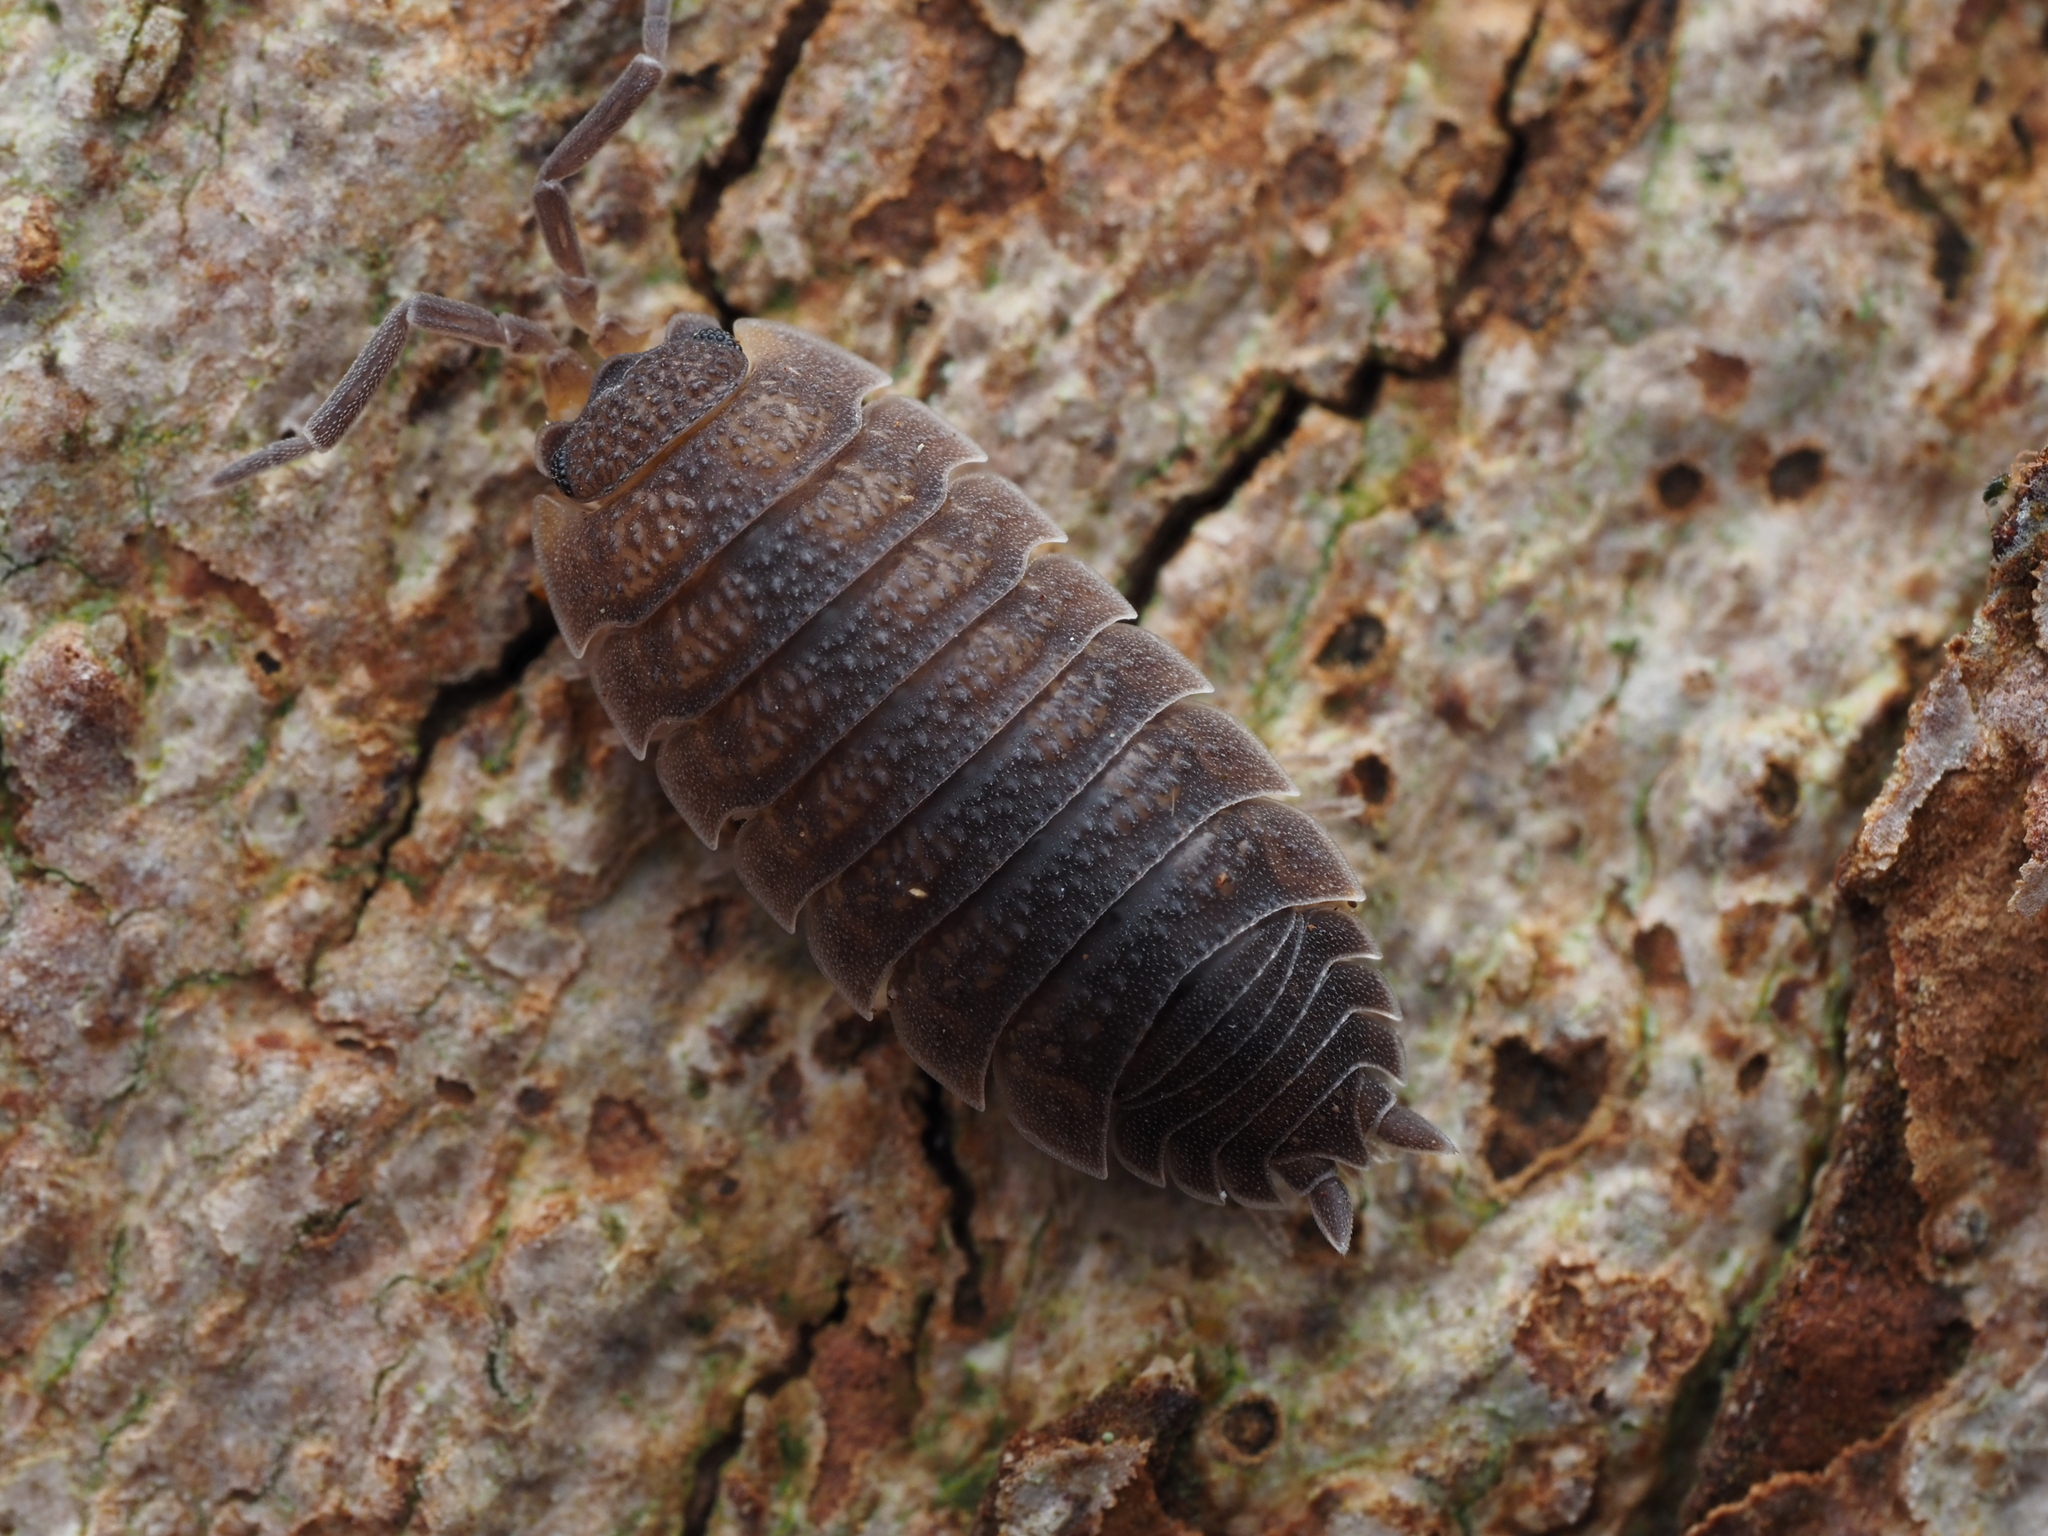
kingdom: Animalia
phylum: Arthropoda
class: Malacostraca
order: Isopoda
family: Porcellionidae
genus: Porcellio
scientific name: Porcellio scaber
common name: Common rough woodlouse
